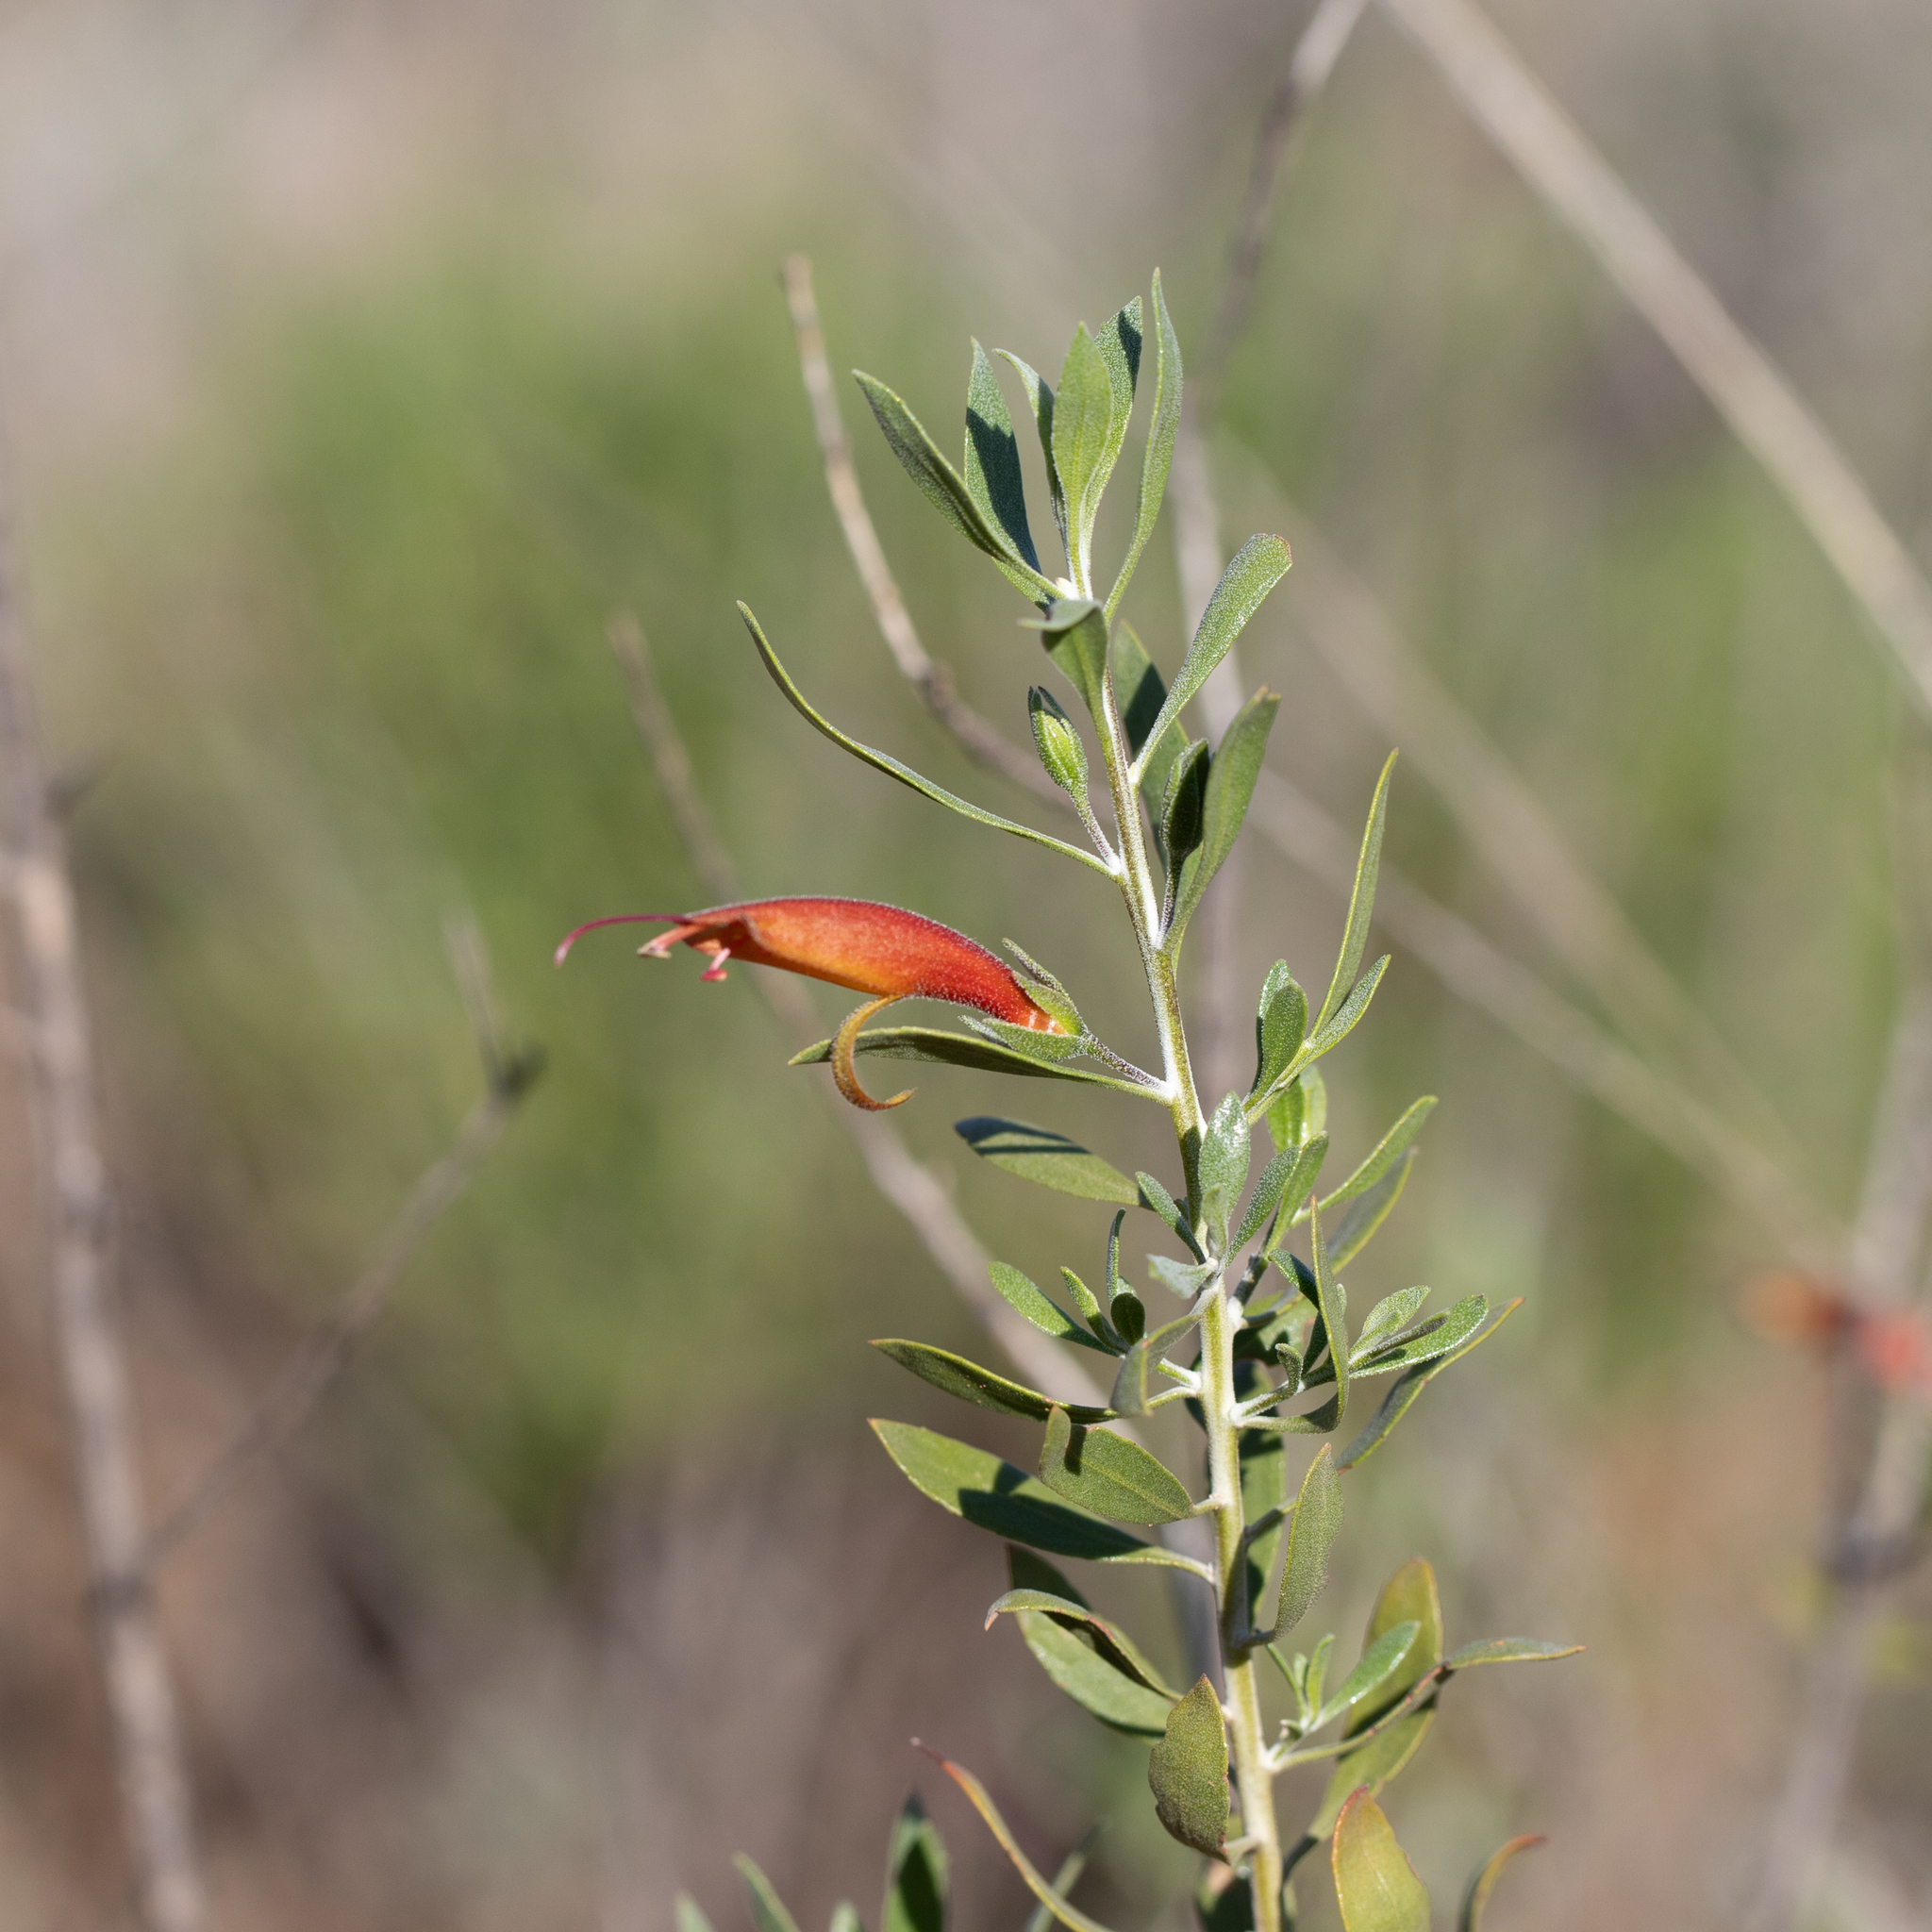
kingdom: Plantae
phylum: Tracheophyta
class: Magnoliopsida
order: Lamiales
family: Scrophulariaceae
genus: Eremophila
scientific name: Eremophila glabra
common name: Black-fuchsia
